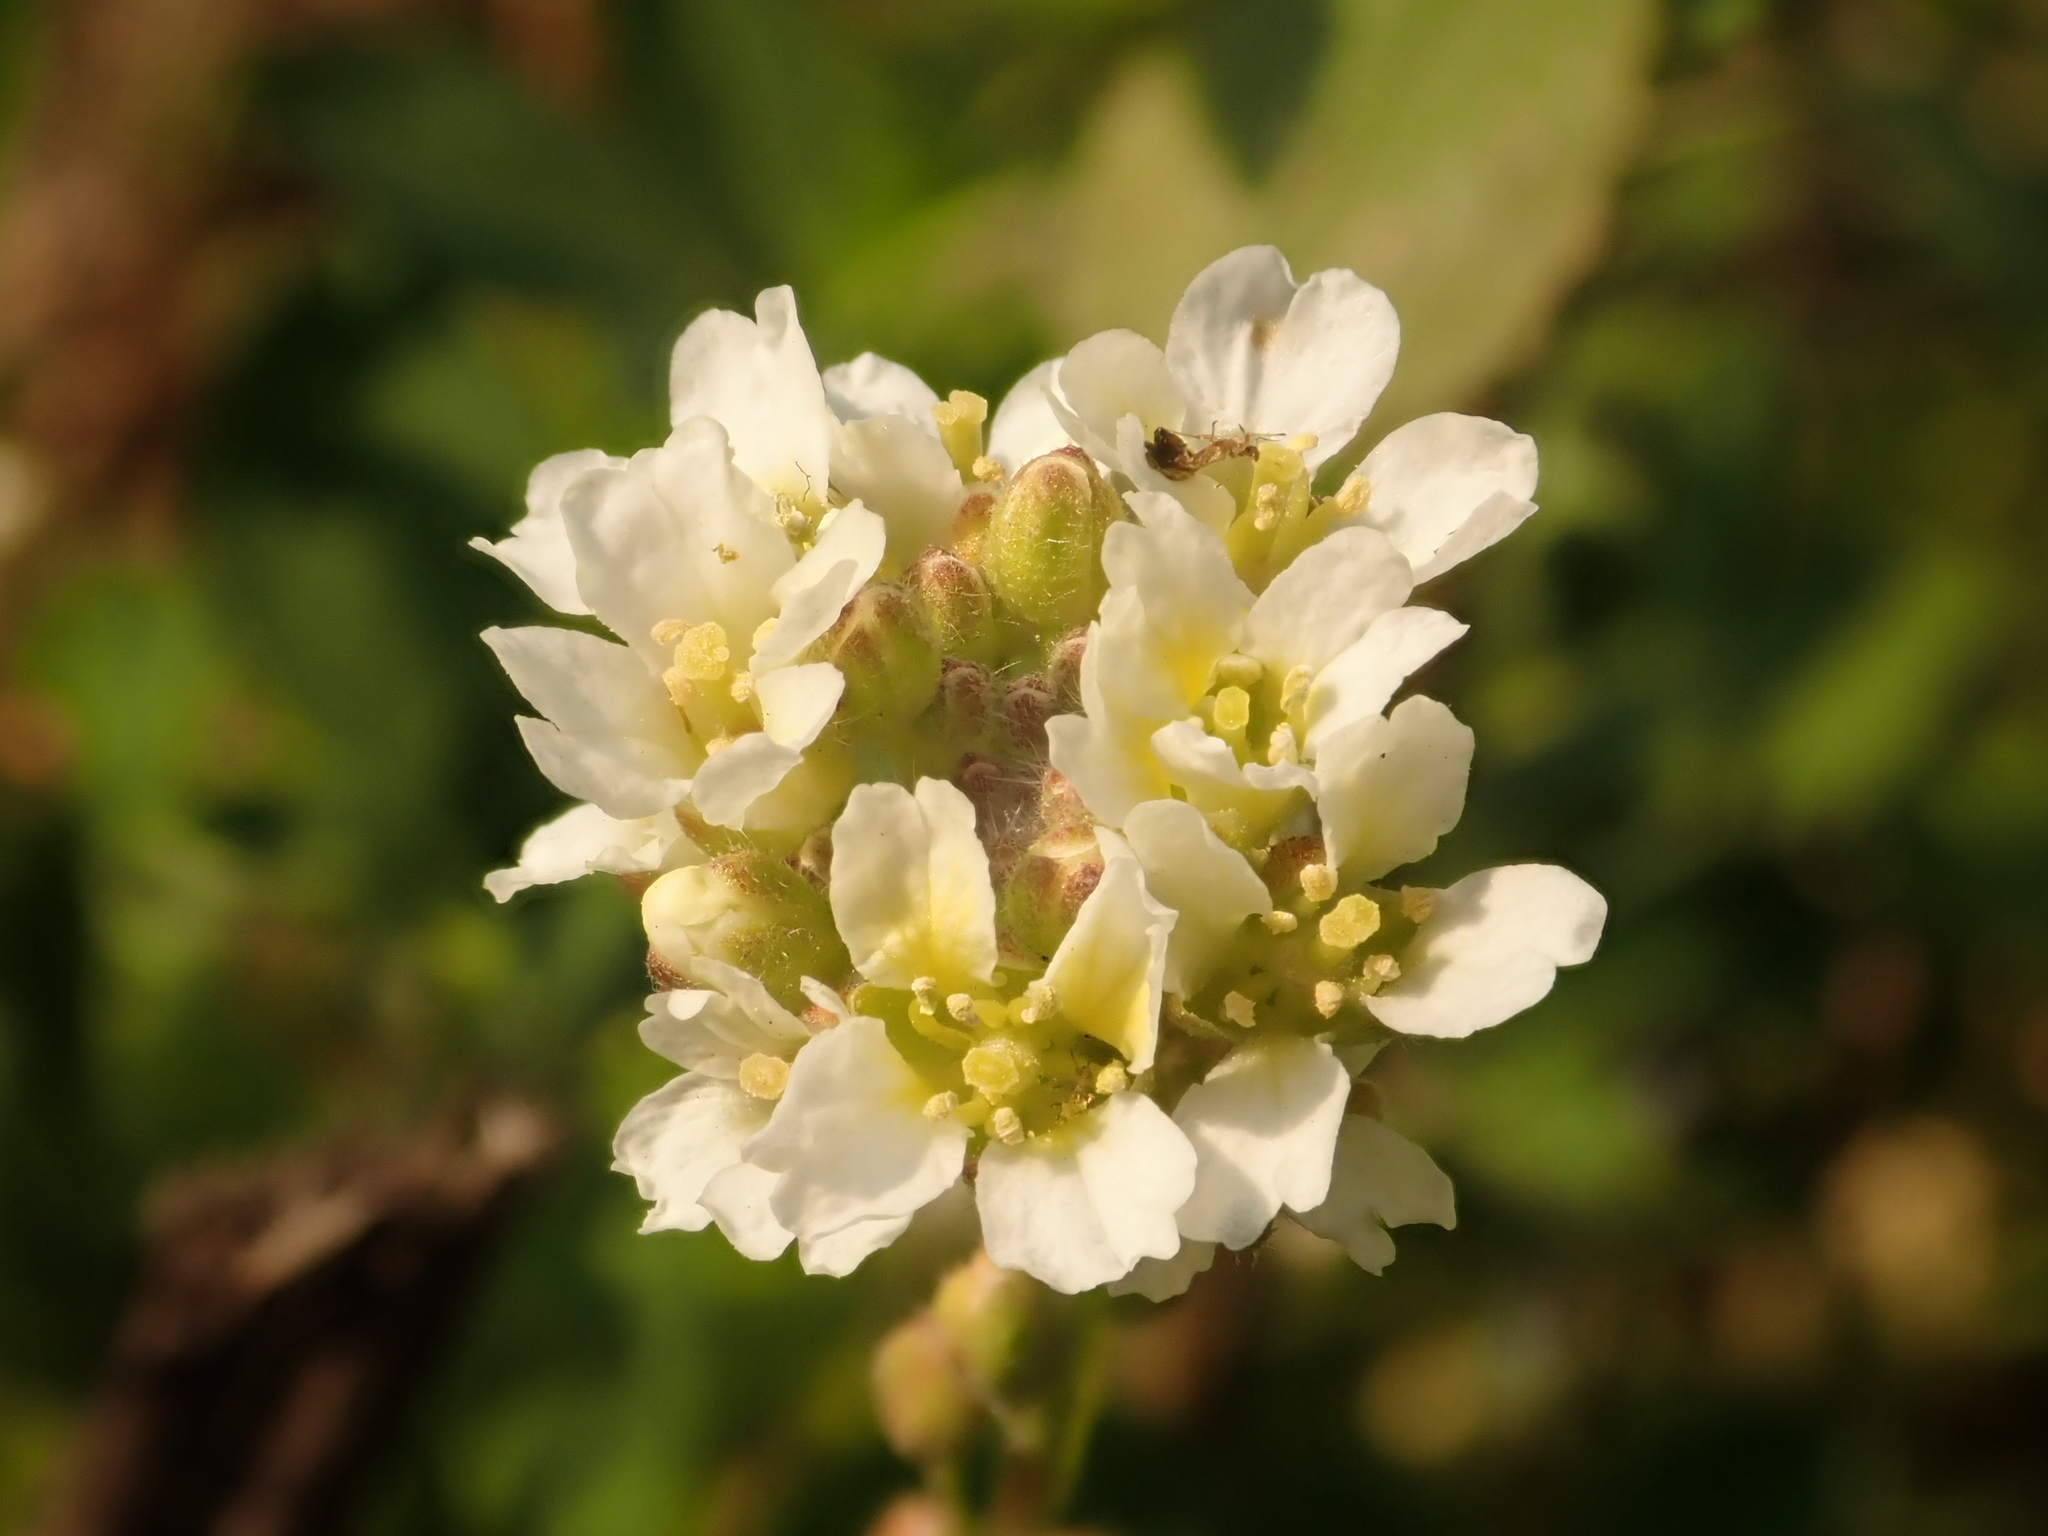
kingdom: Plantae
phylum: Tracheophyta
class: Magnoliopsida
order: Brassicales
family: Brassicaceae
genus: Berteroa
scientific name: Berteroa incana
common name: Hoary alison
